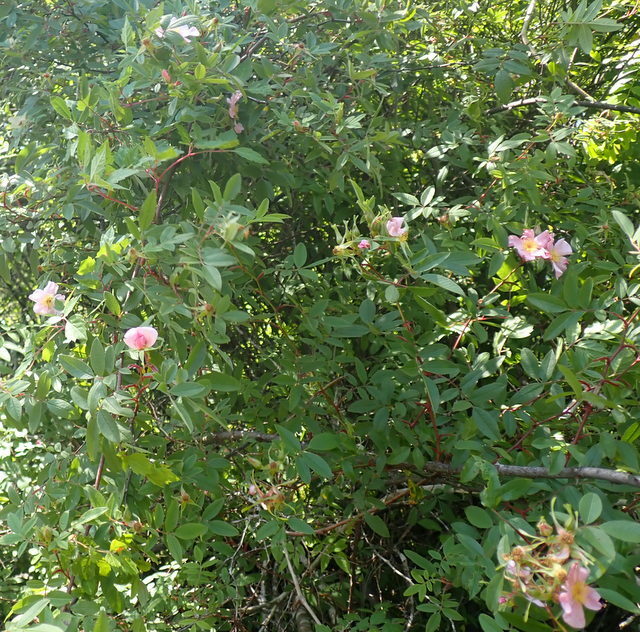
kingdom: Plantae
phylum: Tracheophyta
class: Magnoliopsida
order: Rosales
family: Rosaceae
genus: Rosa
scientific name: Rosa palustris
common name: Swamp rose
